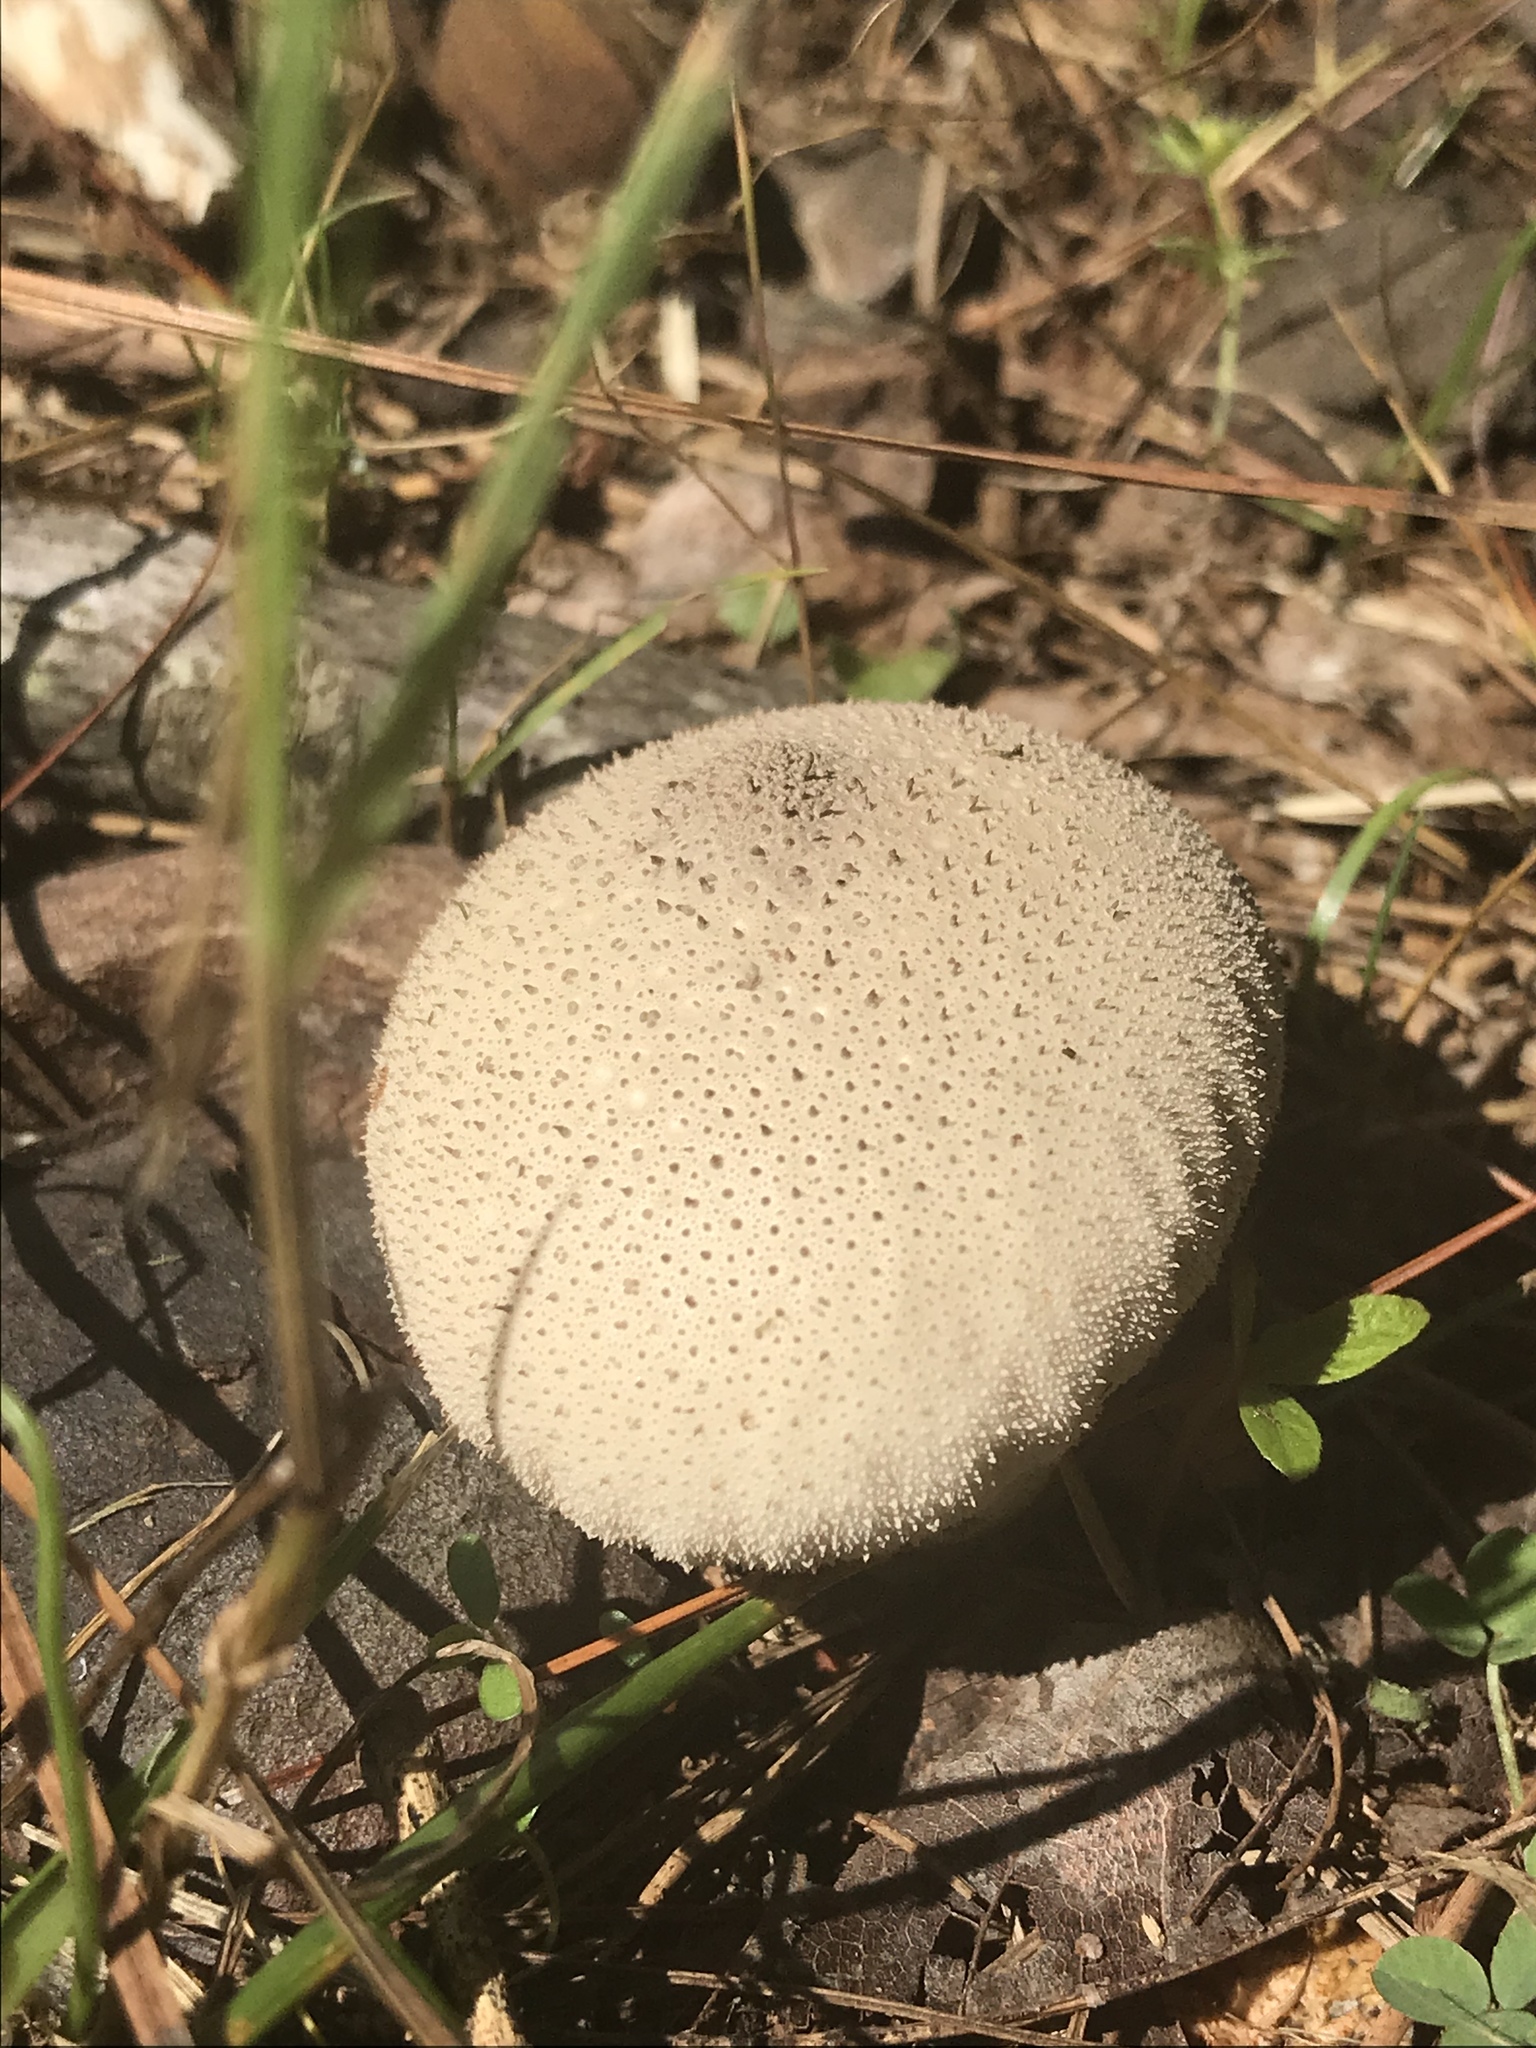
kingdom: Fungi
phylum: Basidiomycota
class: Agaricomycetes
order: Agaricales
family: Lycoperdaceae
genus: Lycoperdon
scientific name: Lycoperdon perlatum
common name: Common puffball
